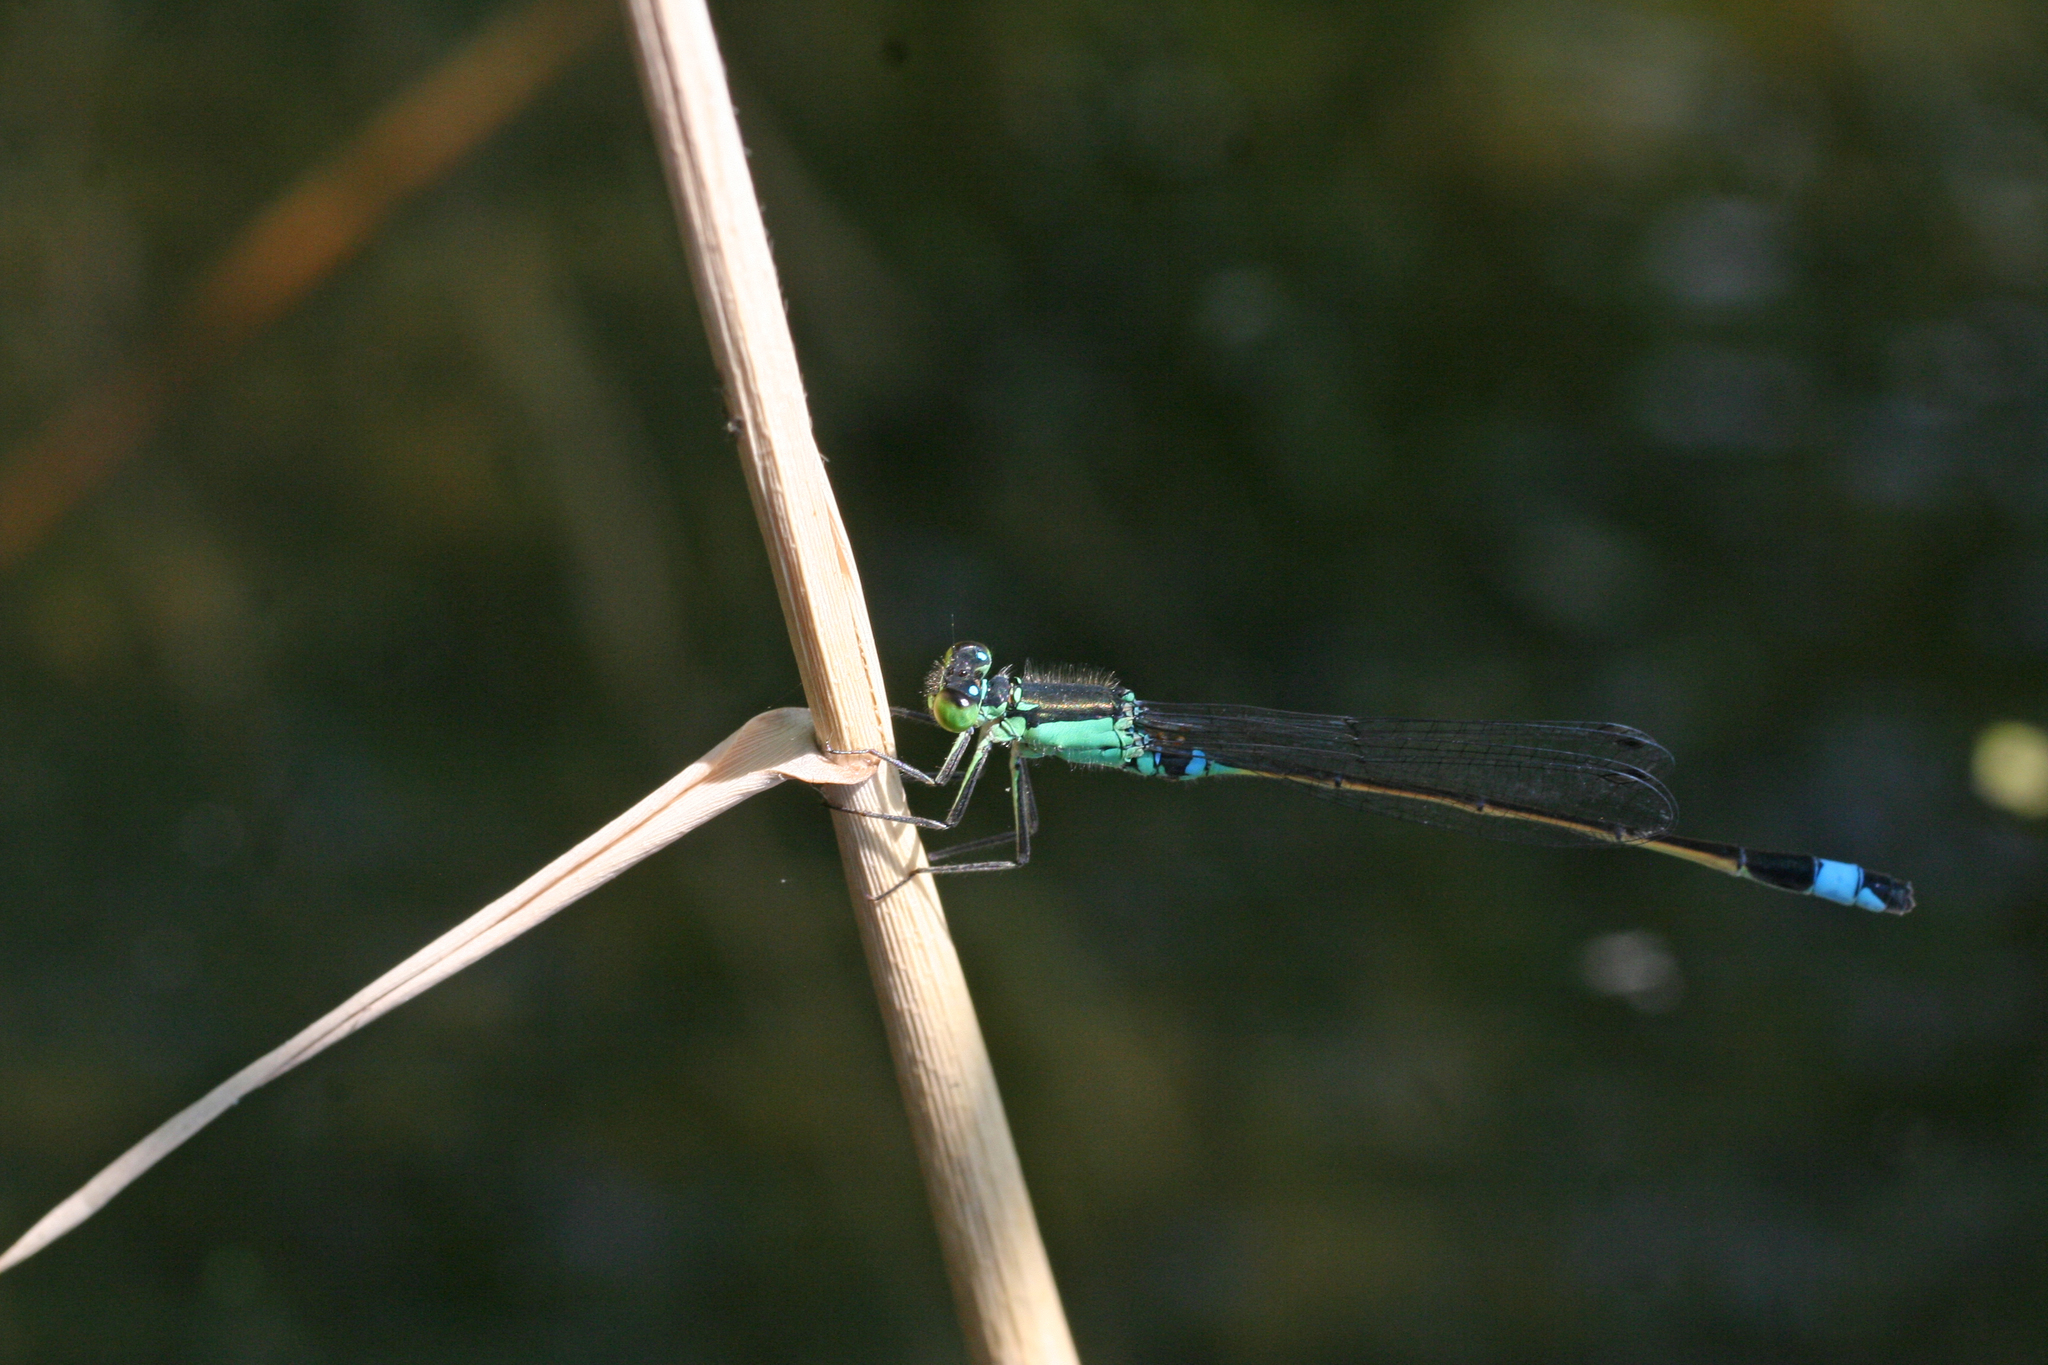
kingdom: Animalia
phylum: Arthropoda
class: Insecta
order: Odonata
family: Coenagrionidae
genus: Ischnura
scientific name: Ischnura aralensis
